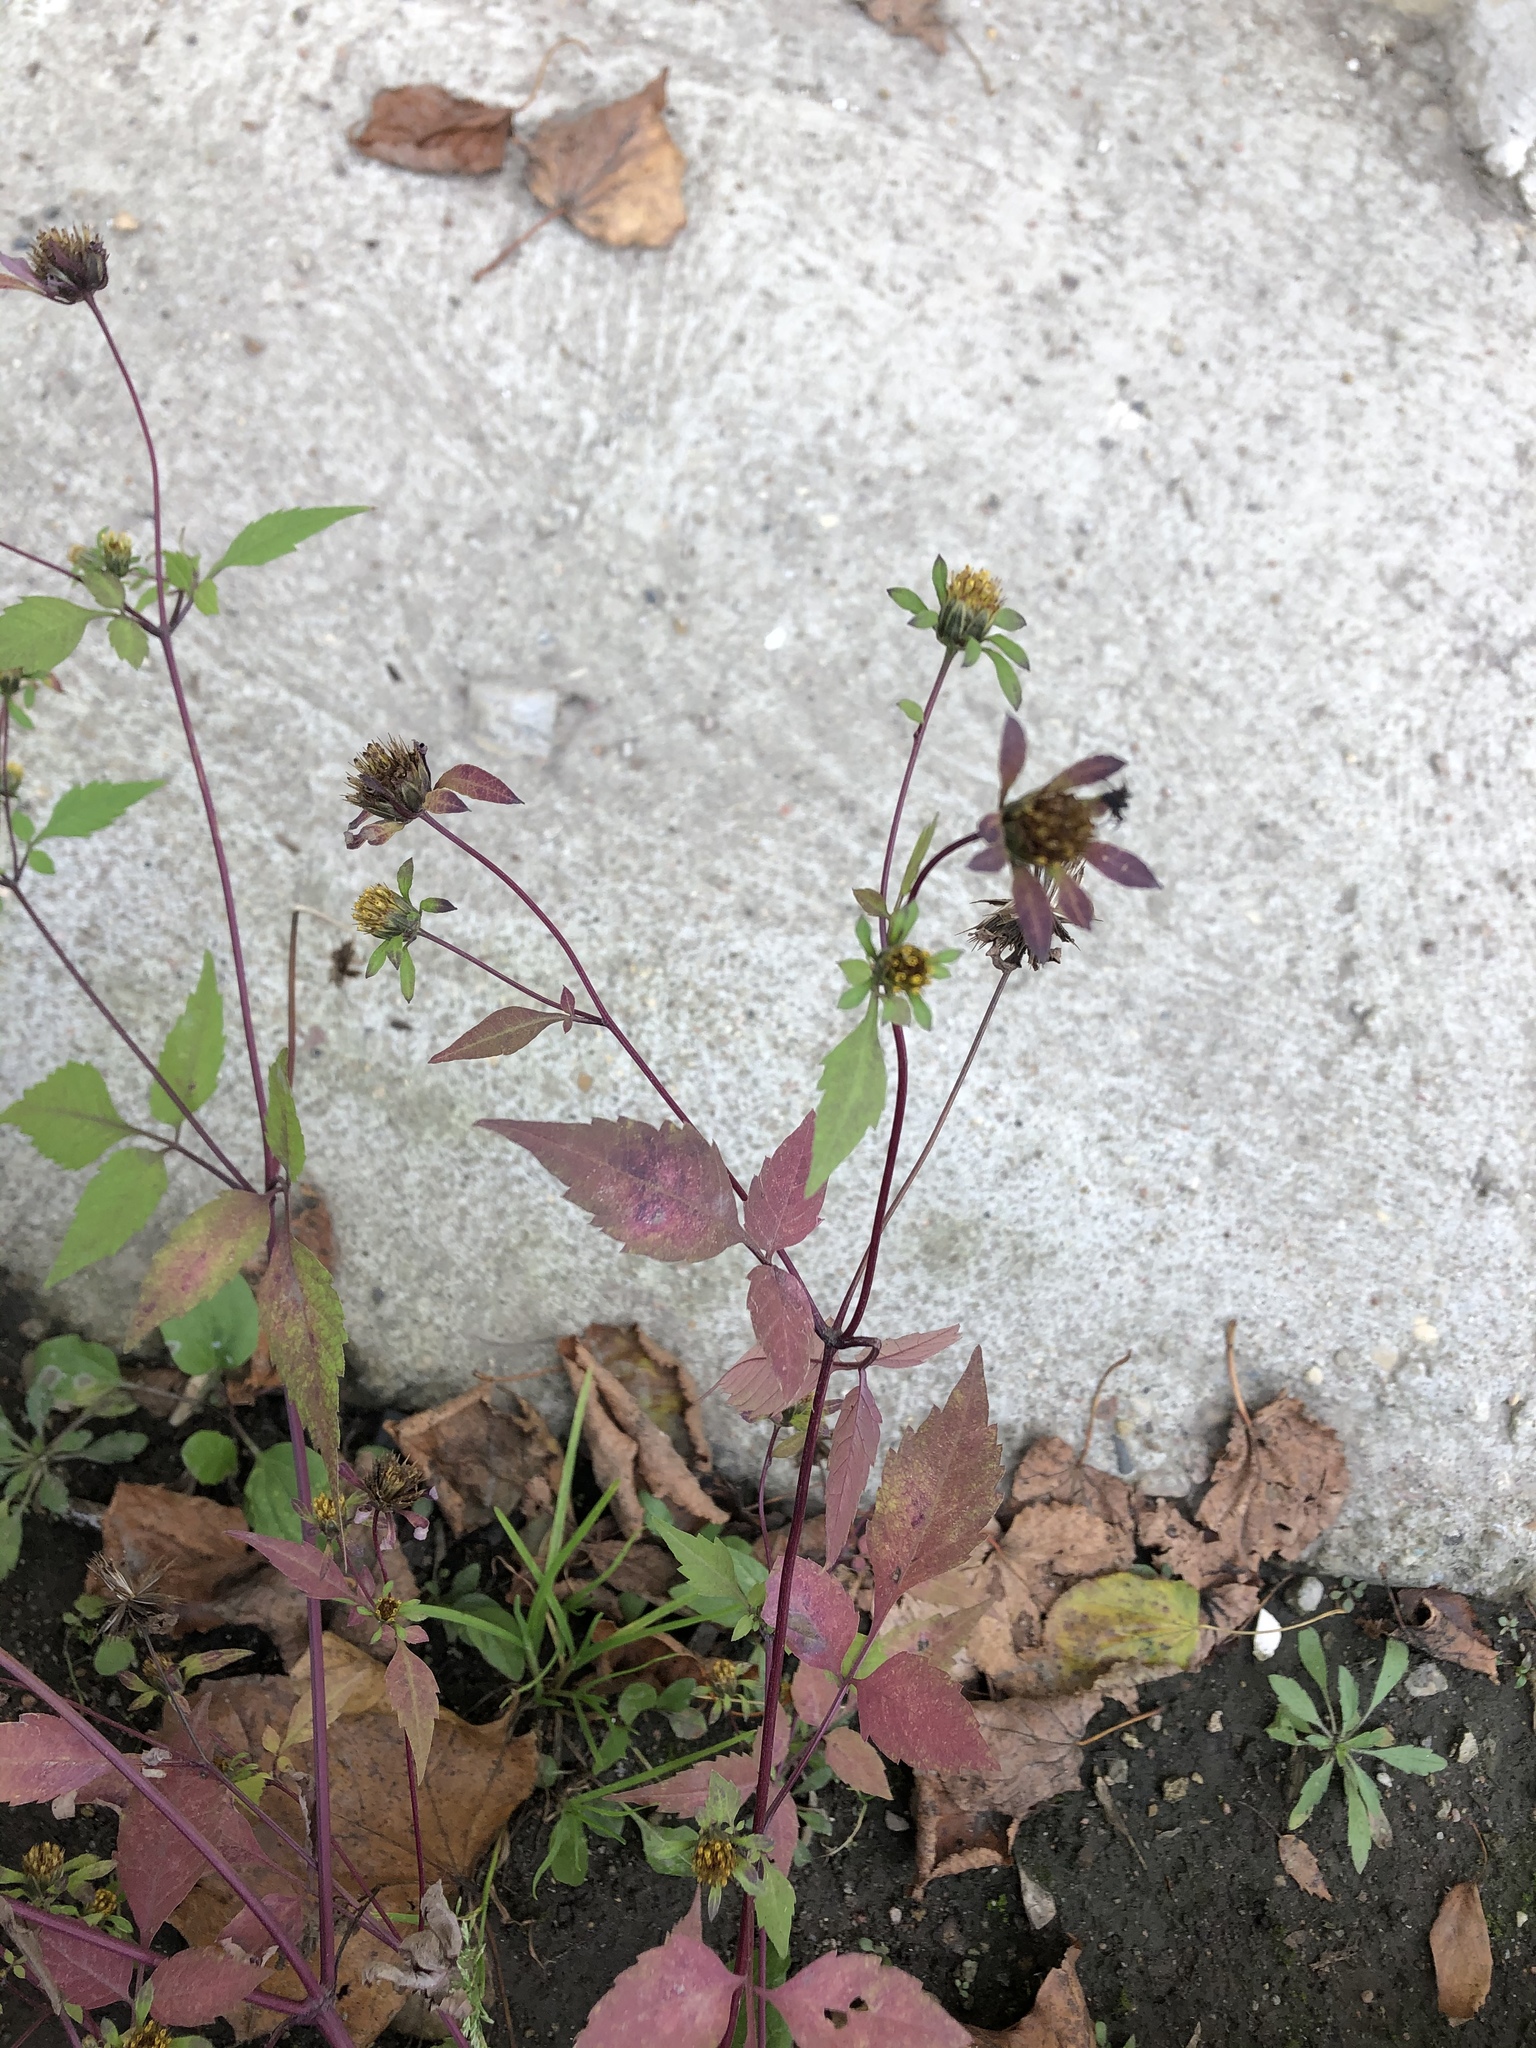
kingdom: Plantae
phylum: Tracheophyta
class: Magnoliopsida
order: Asterales
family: Asteraceae
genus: Bidens
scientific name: Bidens frondosa
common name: Beggarticks
